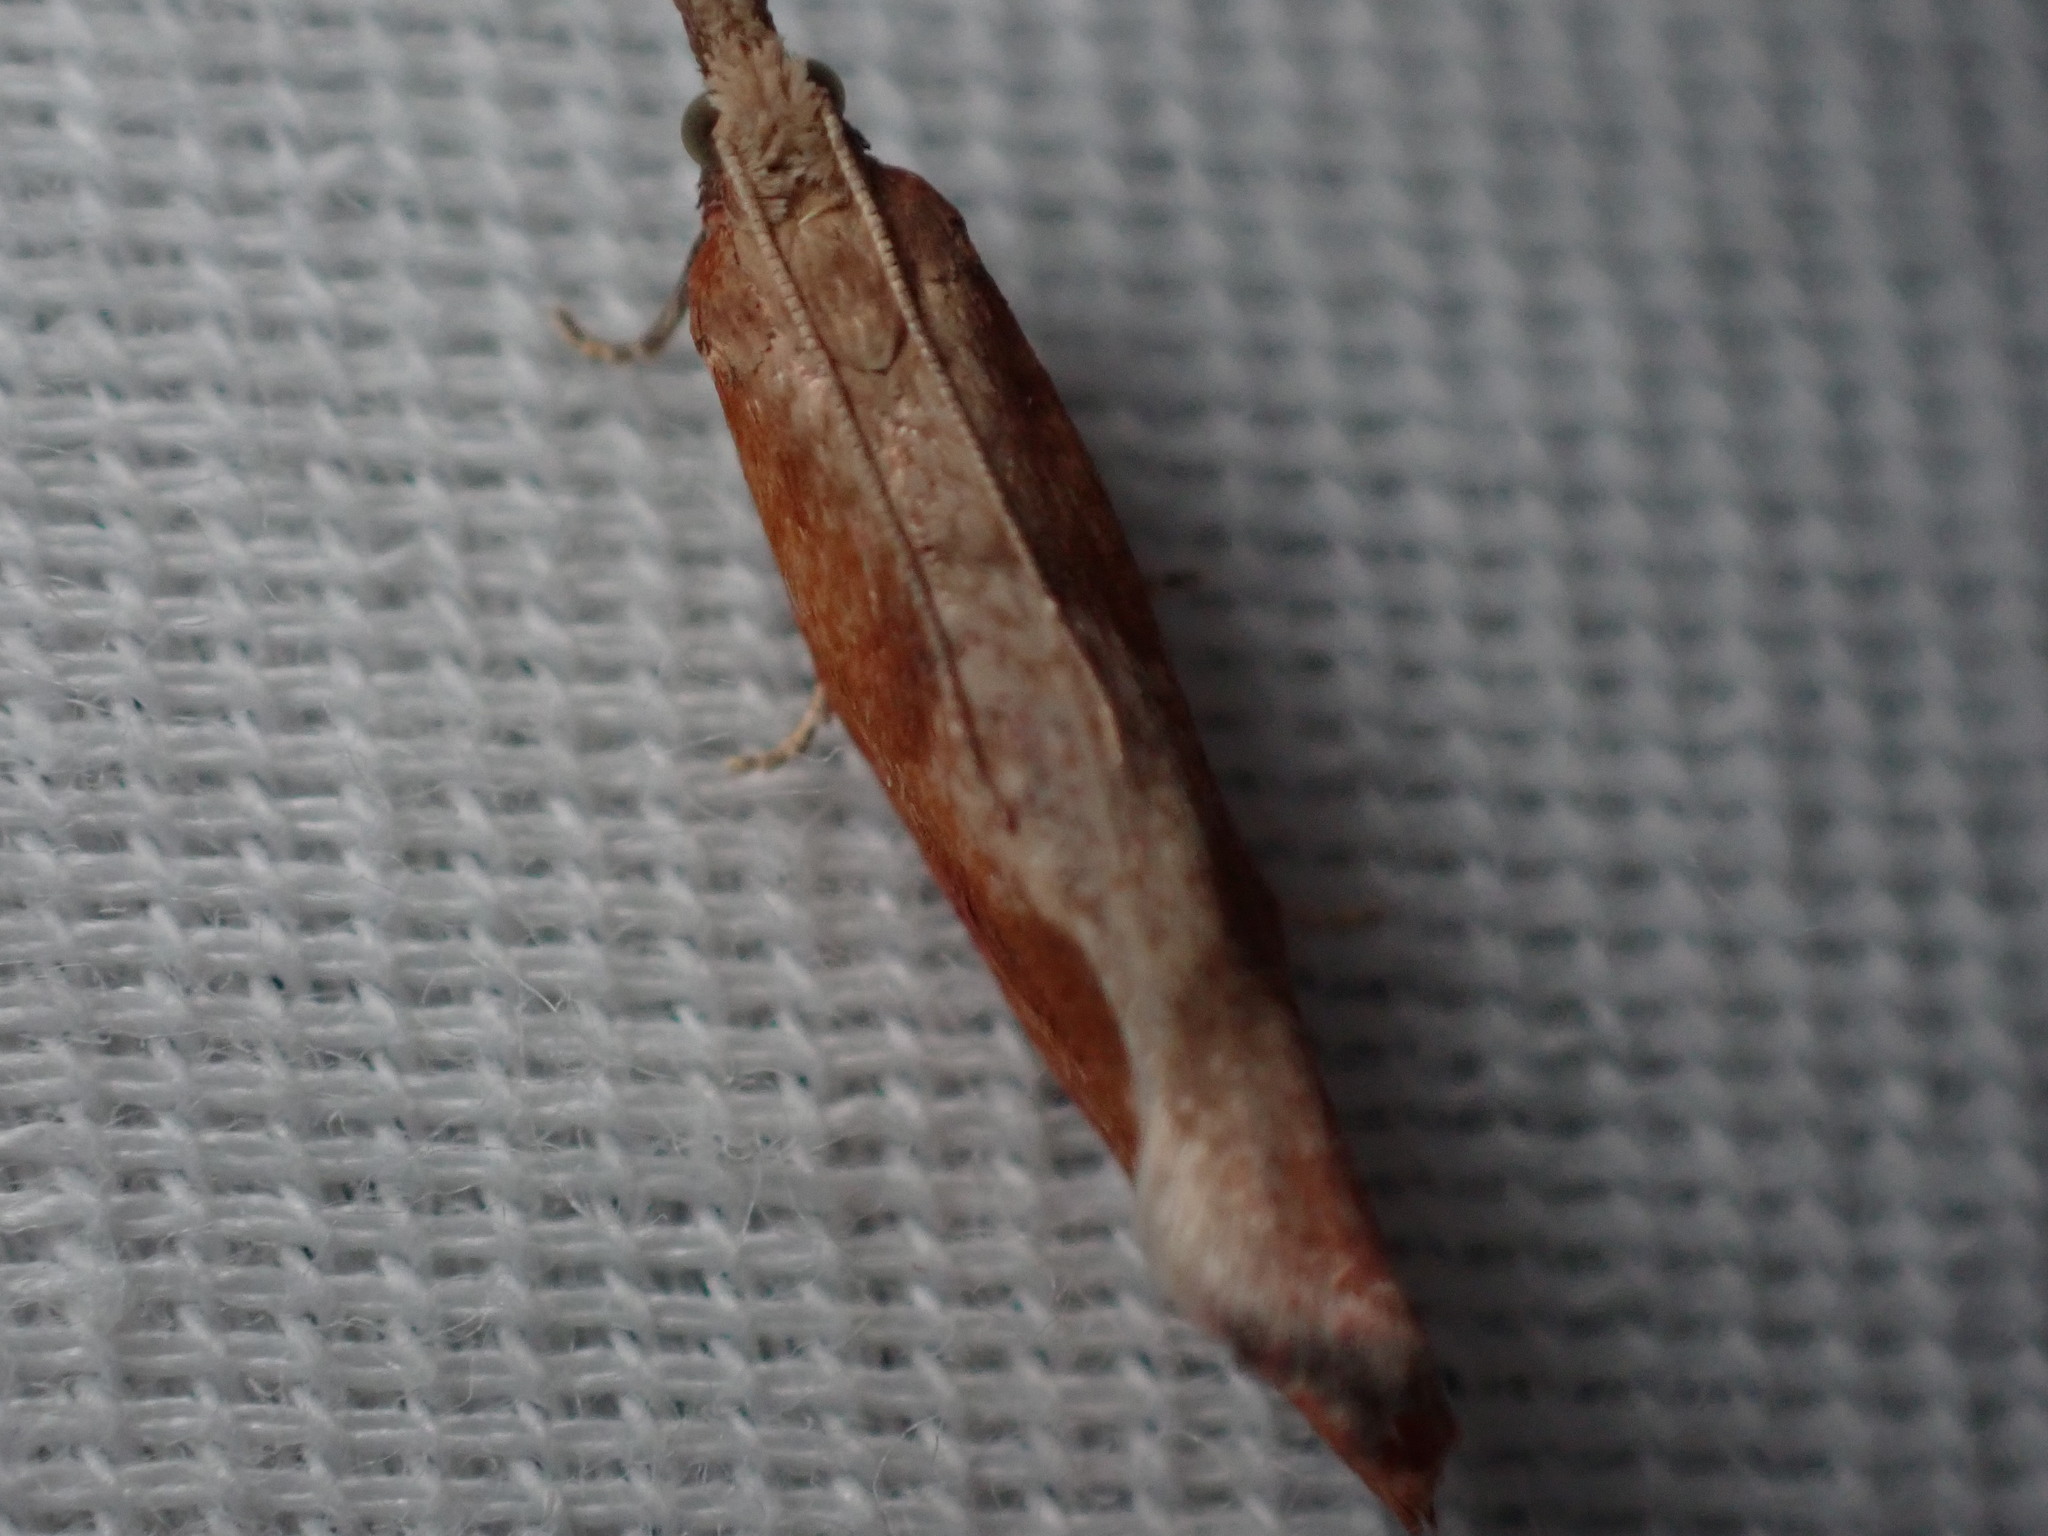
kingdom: Animalia
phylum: Arthropoda
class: Insecta
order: Lepidoptera
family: Tortricidae
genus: Epinotia
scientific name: Epinotia vagana
